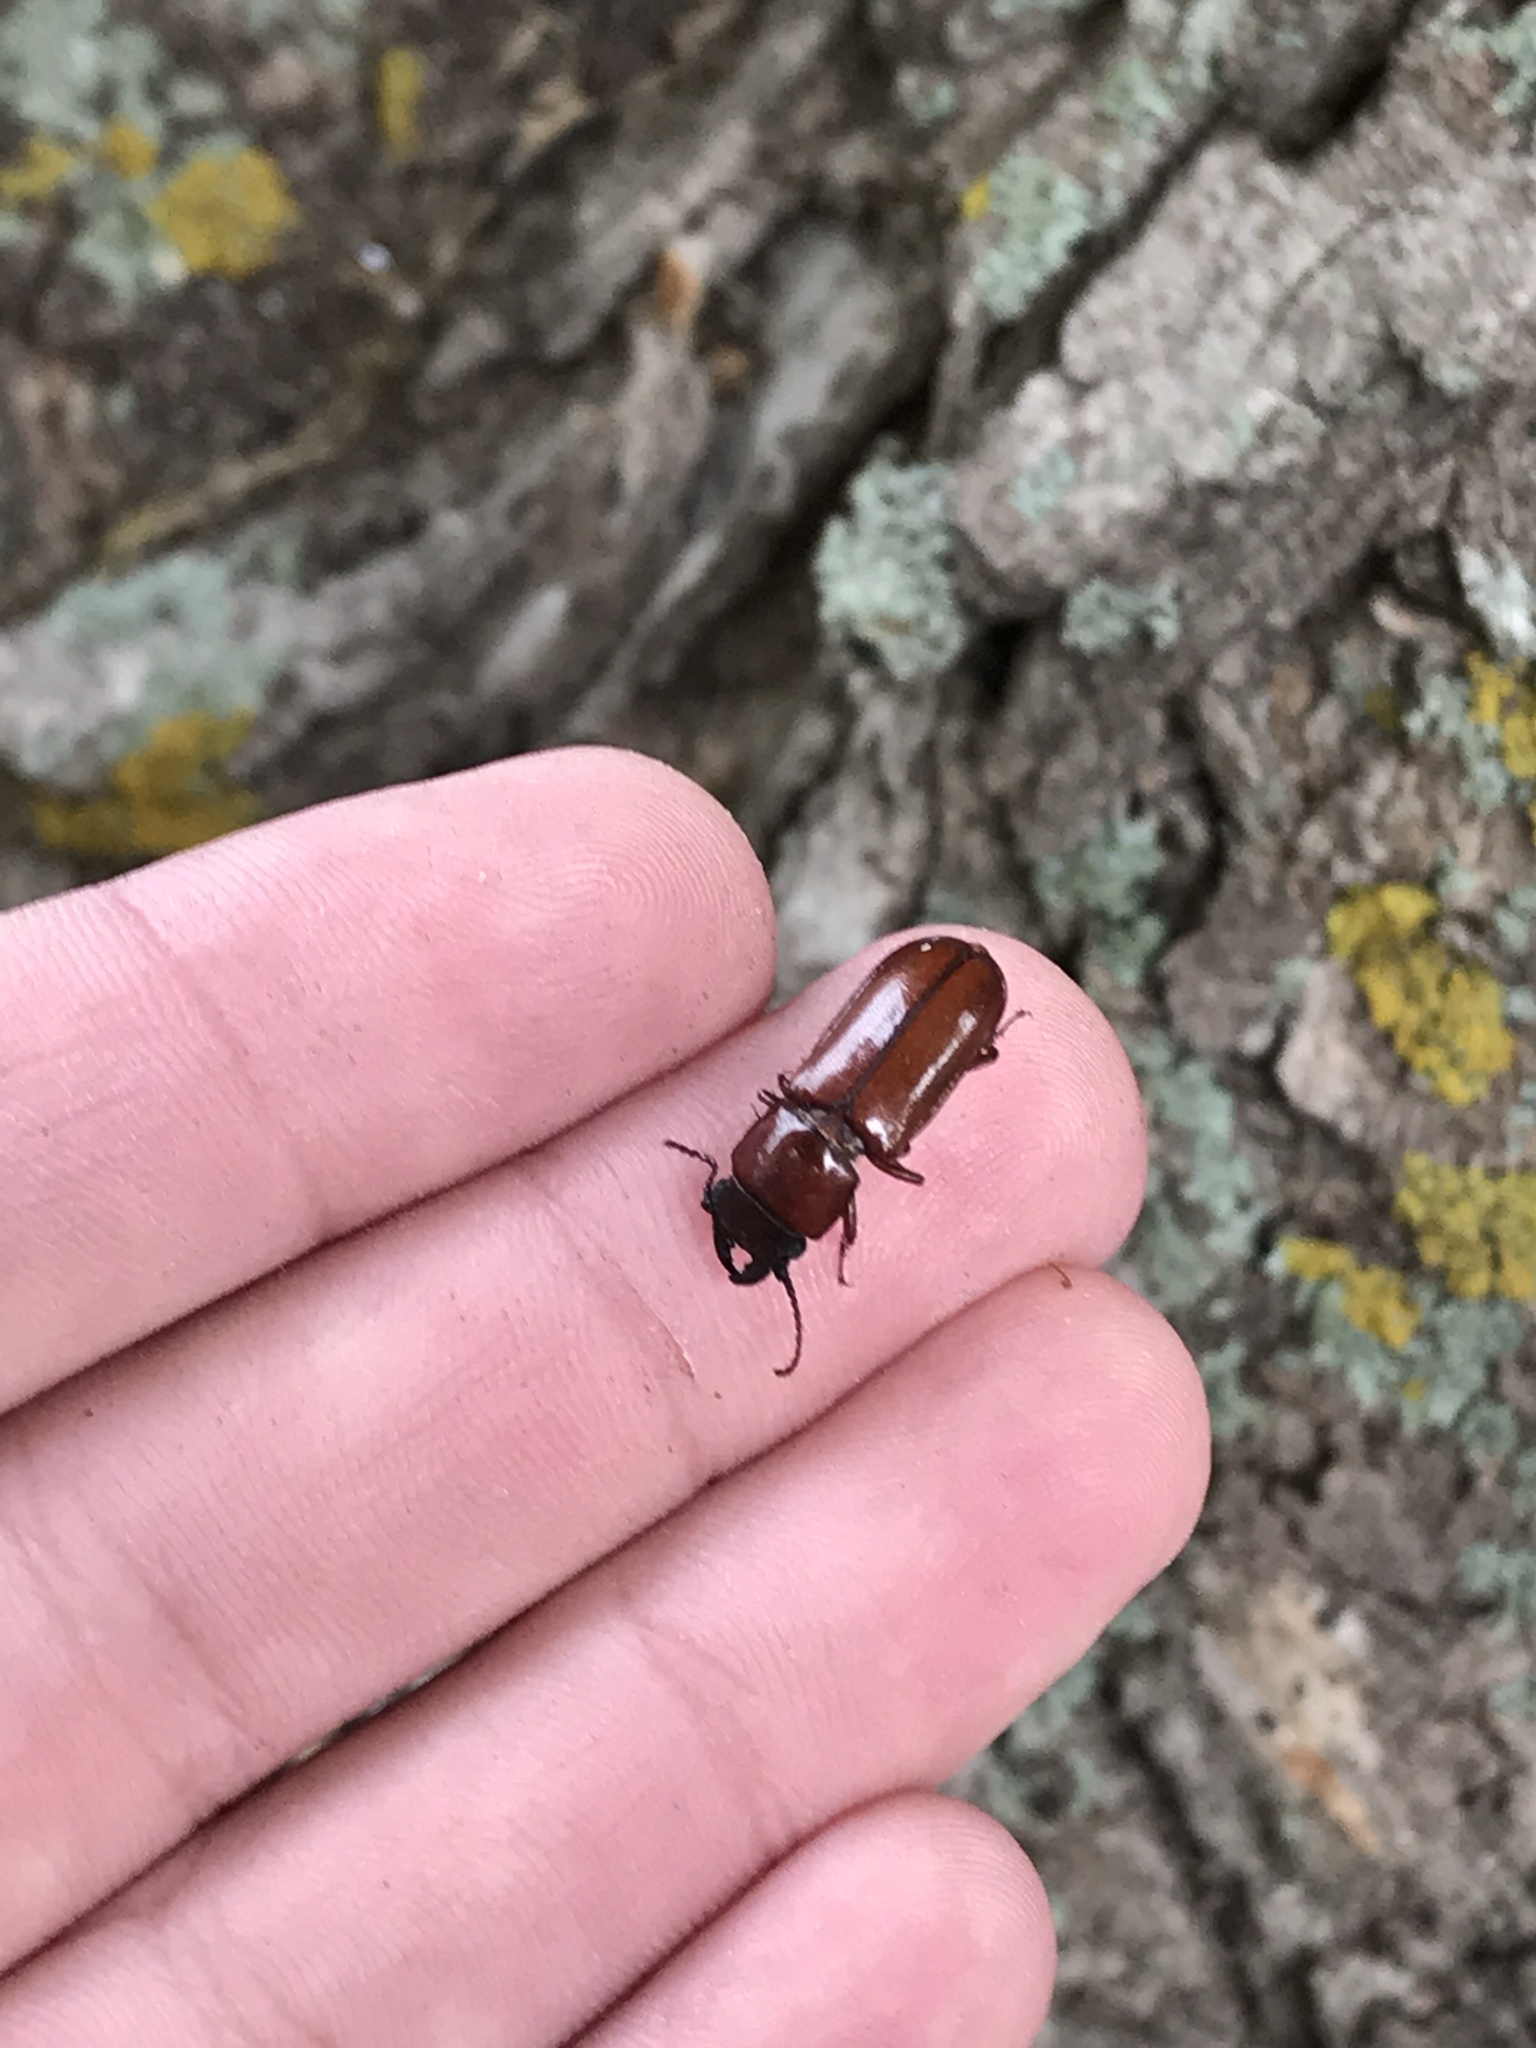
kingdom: Animalia
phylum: Arthropoda
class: Insecta
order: Coleoptera
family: Cerambycidae
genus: Neandra
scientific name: Neandra brunnea
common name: Pole borer
